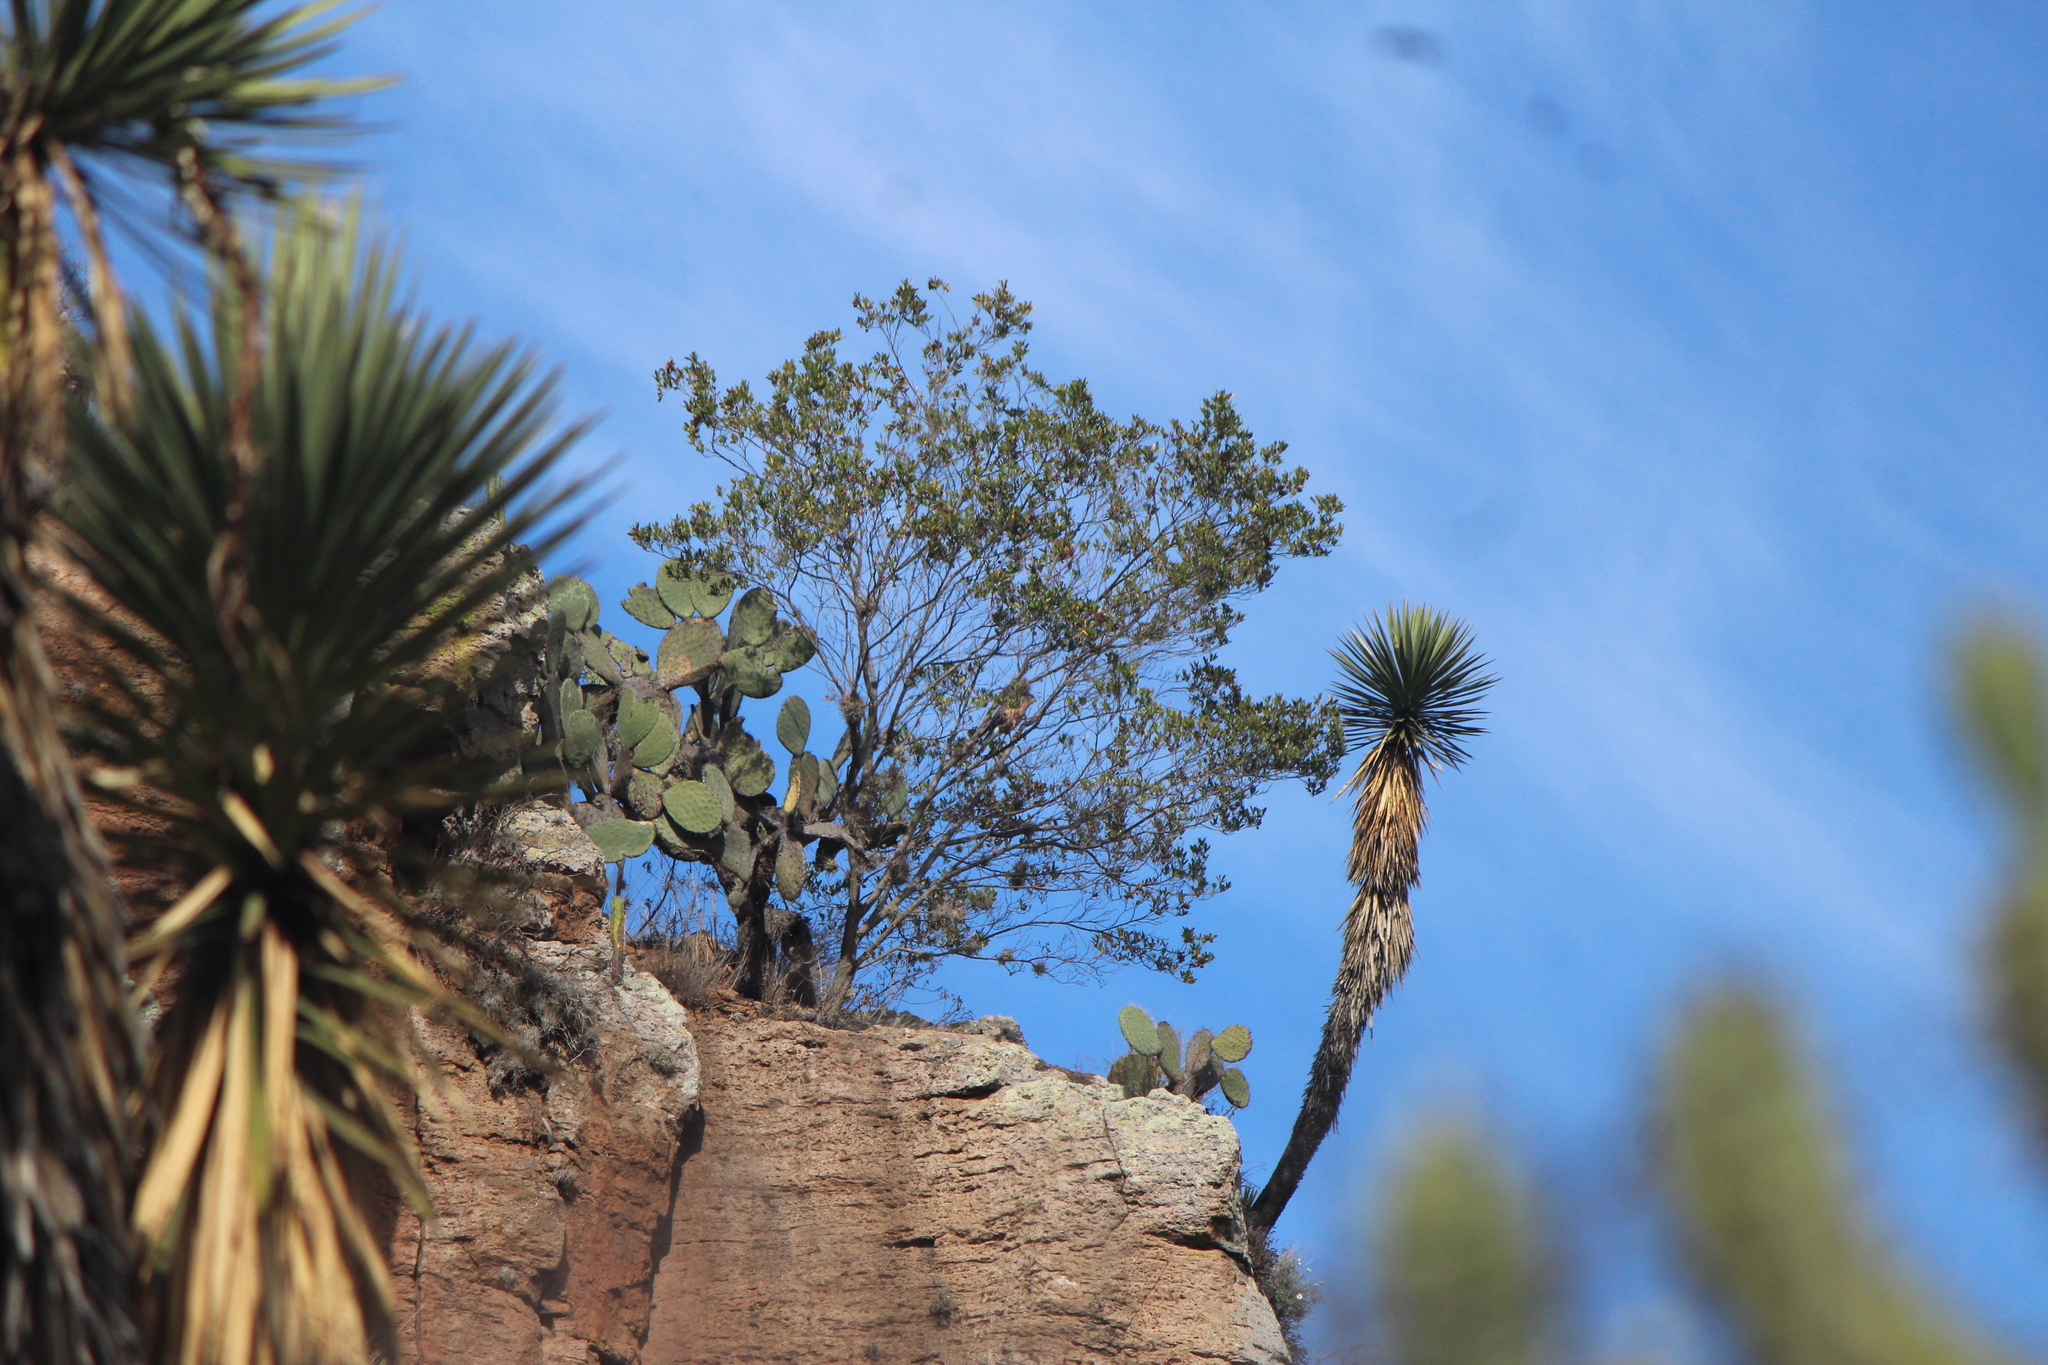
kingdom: Animalia
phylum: Chordata
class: Aves
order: Accipitriformes
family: Accipitridae
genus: Accipiter
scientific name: Accipiter cooperii
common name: Cooper's hawk
